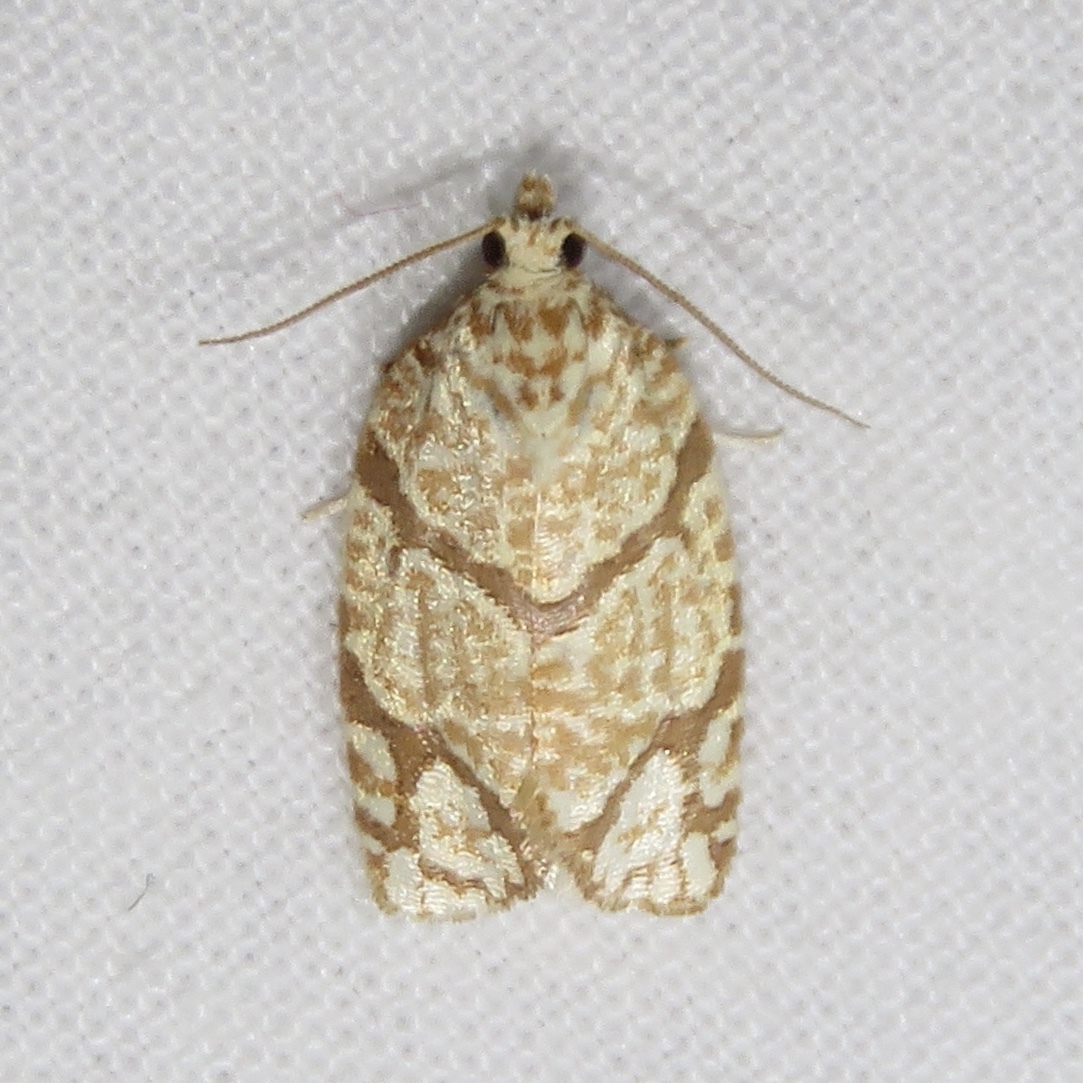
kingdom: Animalia
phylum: Arthropoda
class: Insecta
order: Lepidoptera
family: Tortricidae
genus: Argyrotaenia
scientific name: Argyrotaenia quercifoliana
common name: Yellow-winged oak leafroller moth
